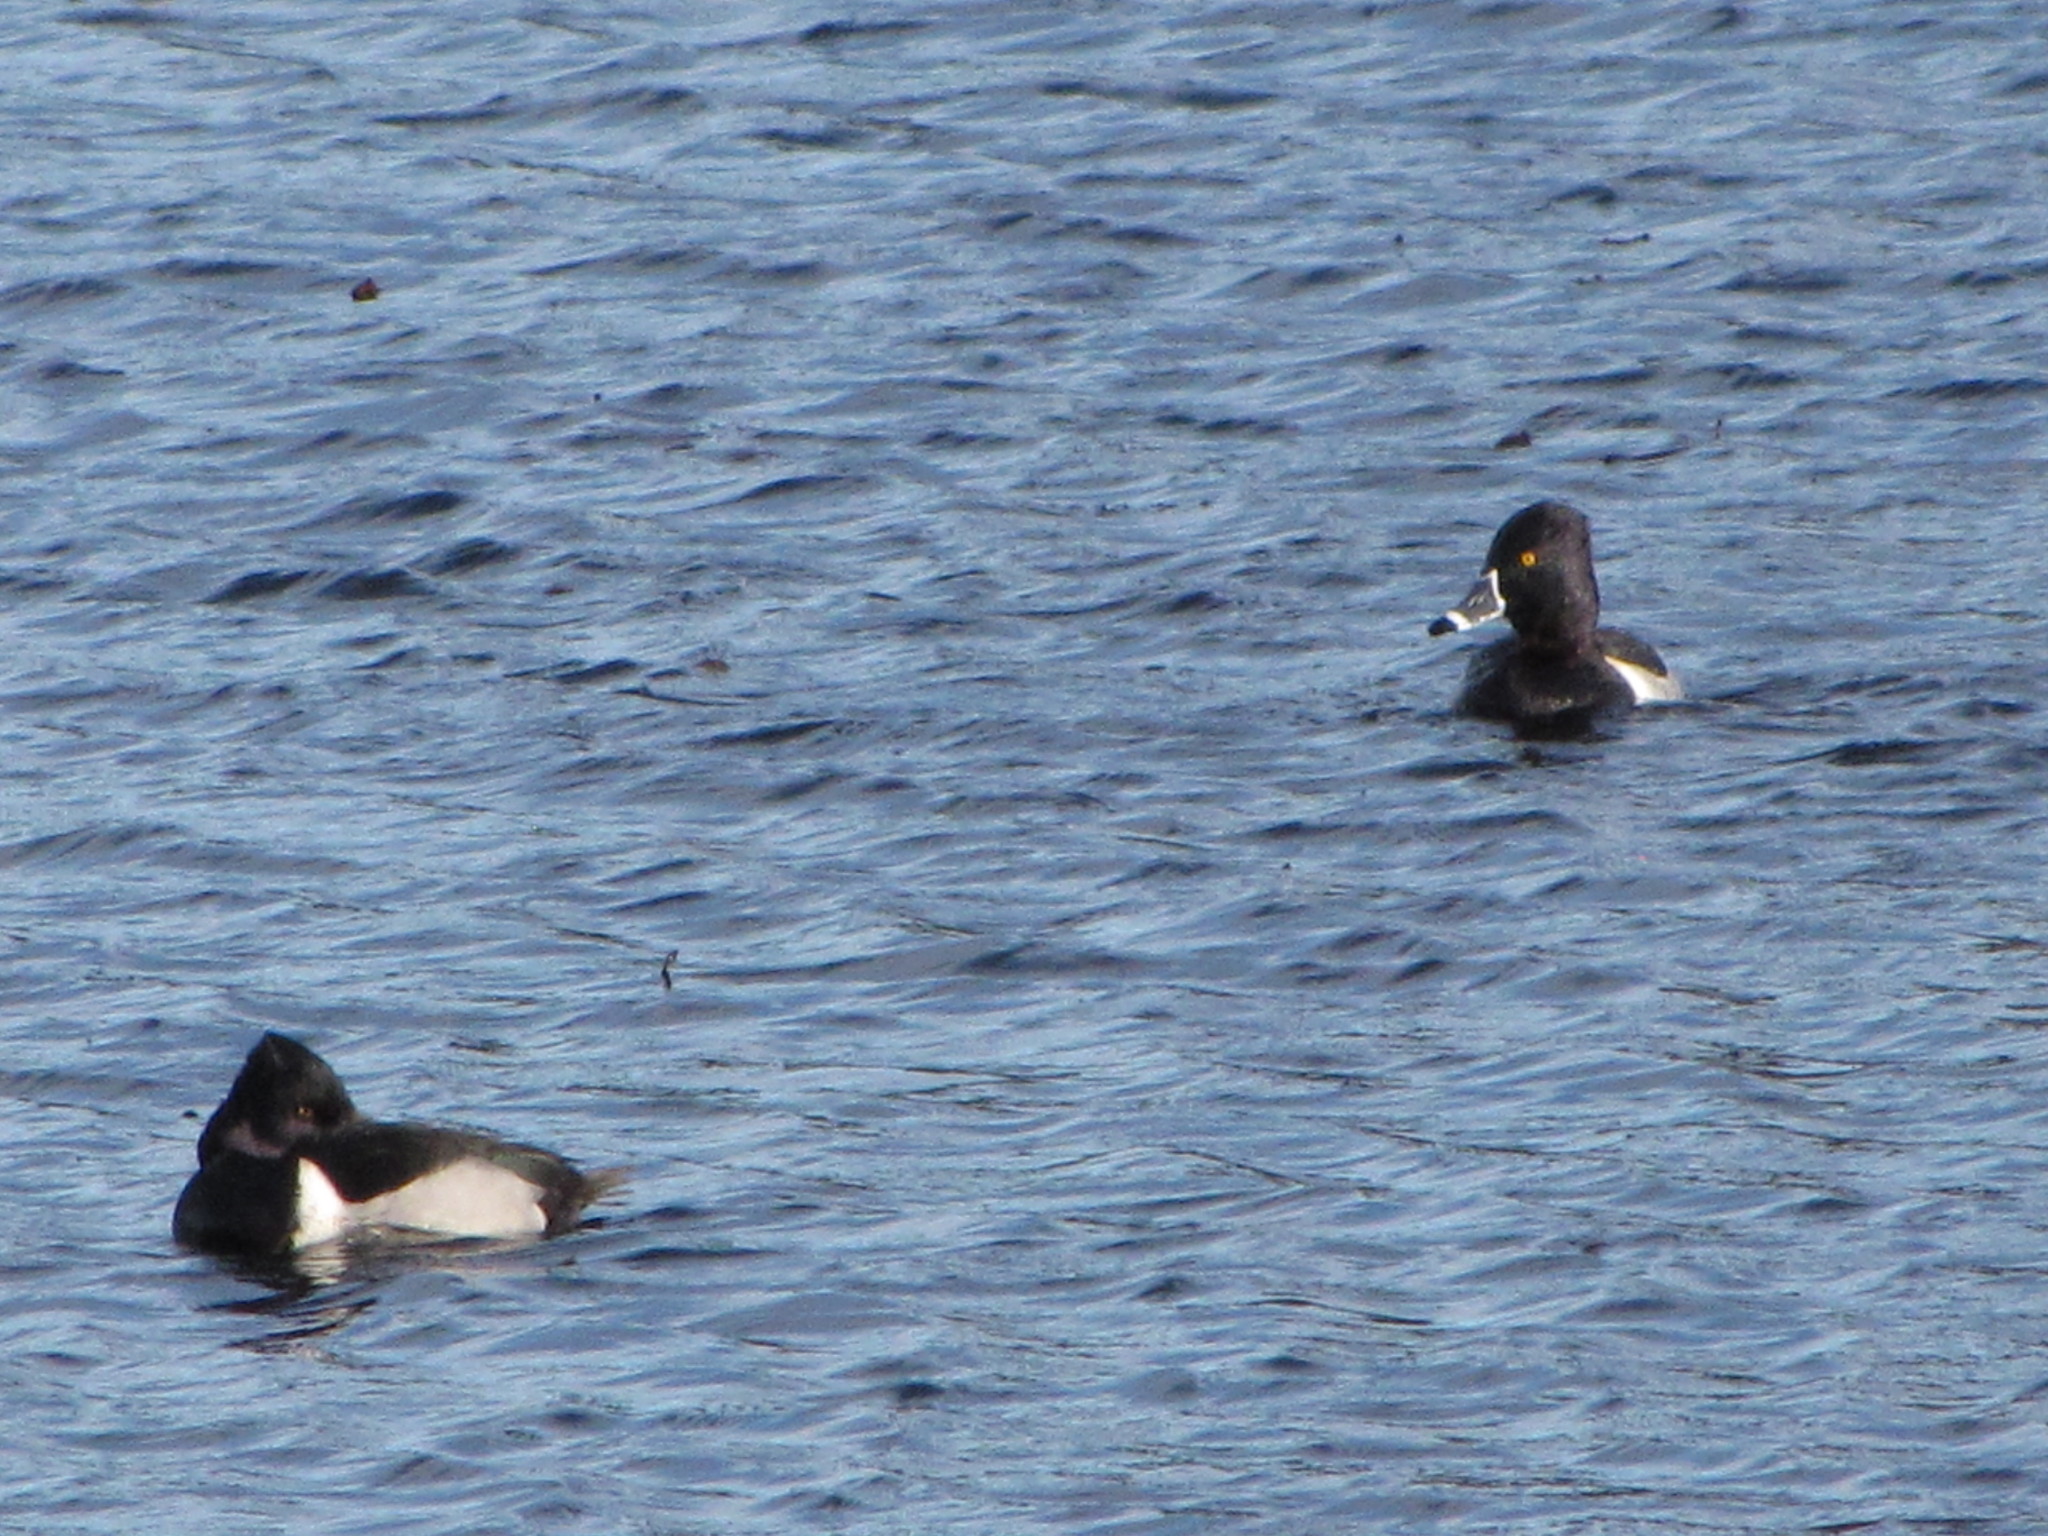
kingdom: Animalia
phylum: Chordata
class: Aves
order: Anseriformes
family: Anatidae
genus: Aythya
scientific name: Aythya collaris
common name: Ring-necked duck
